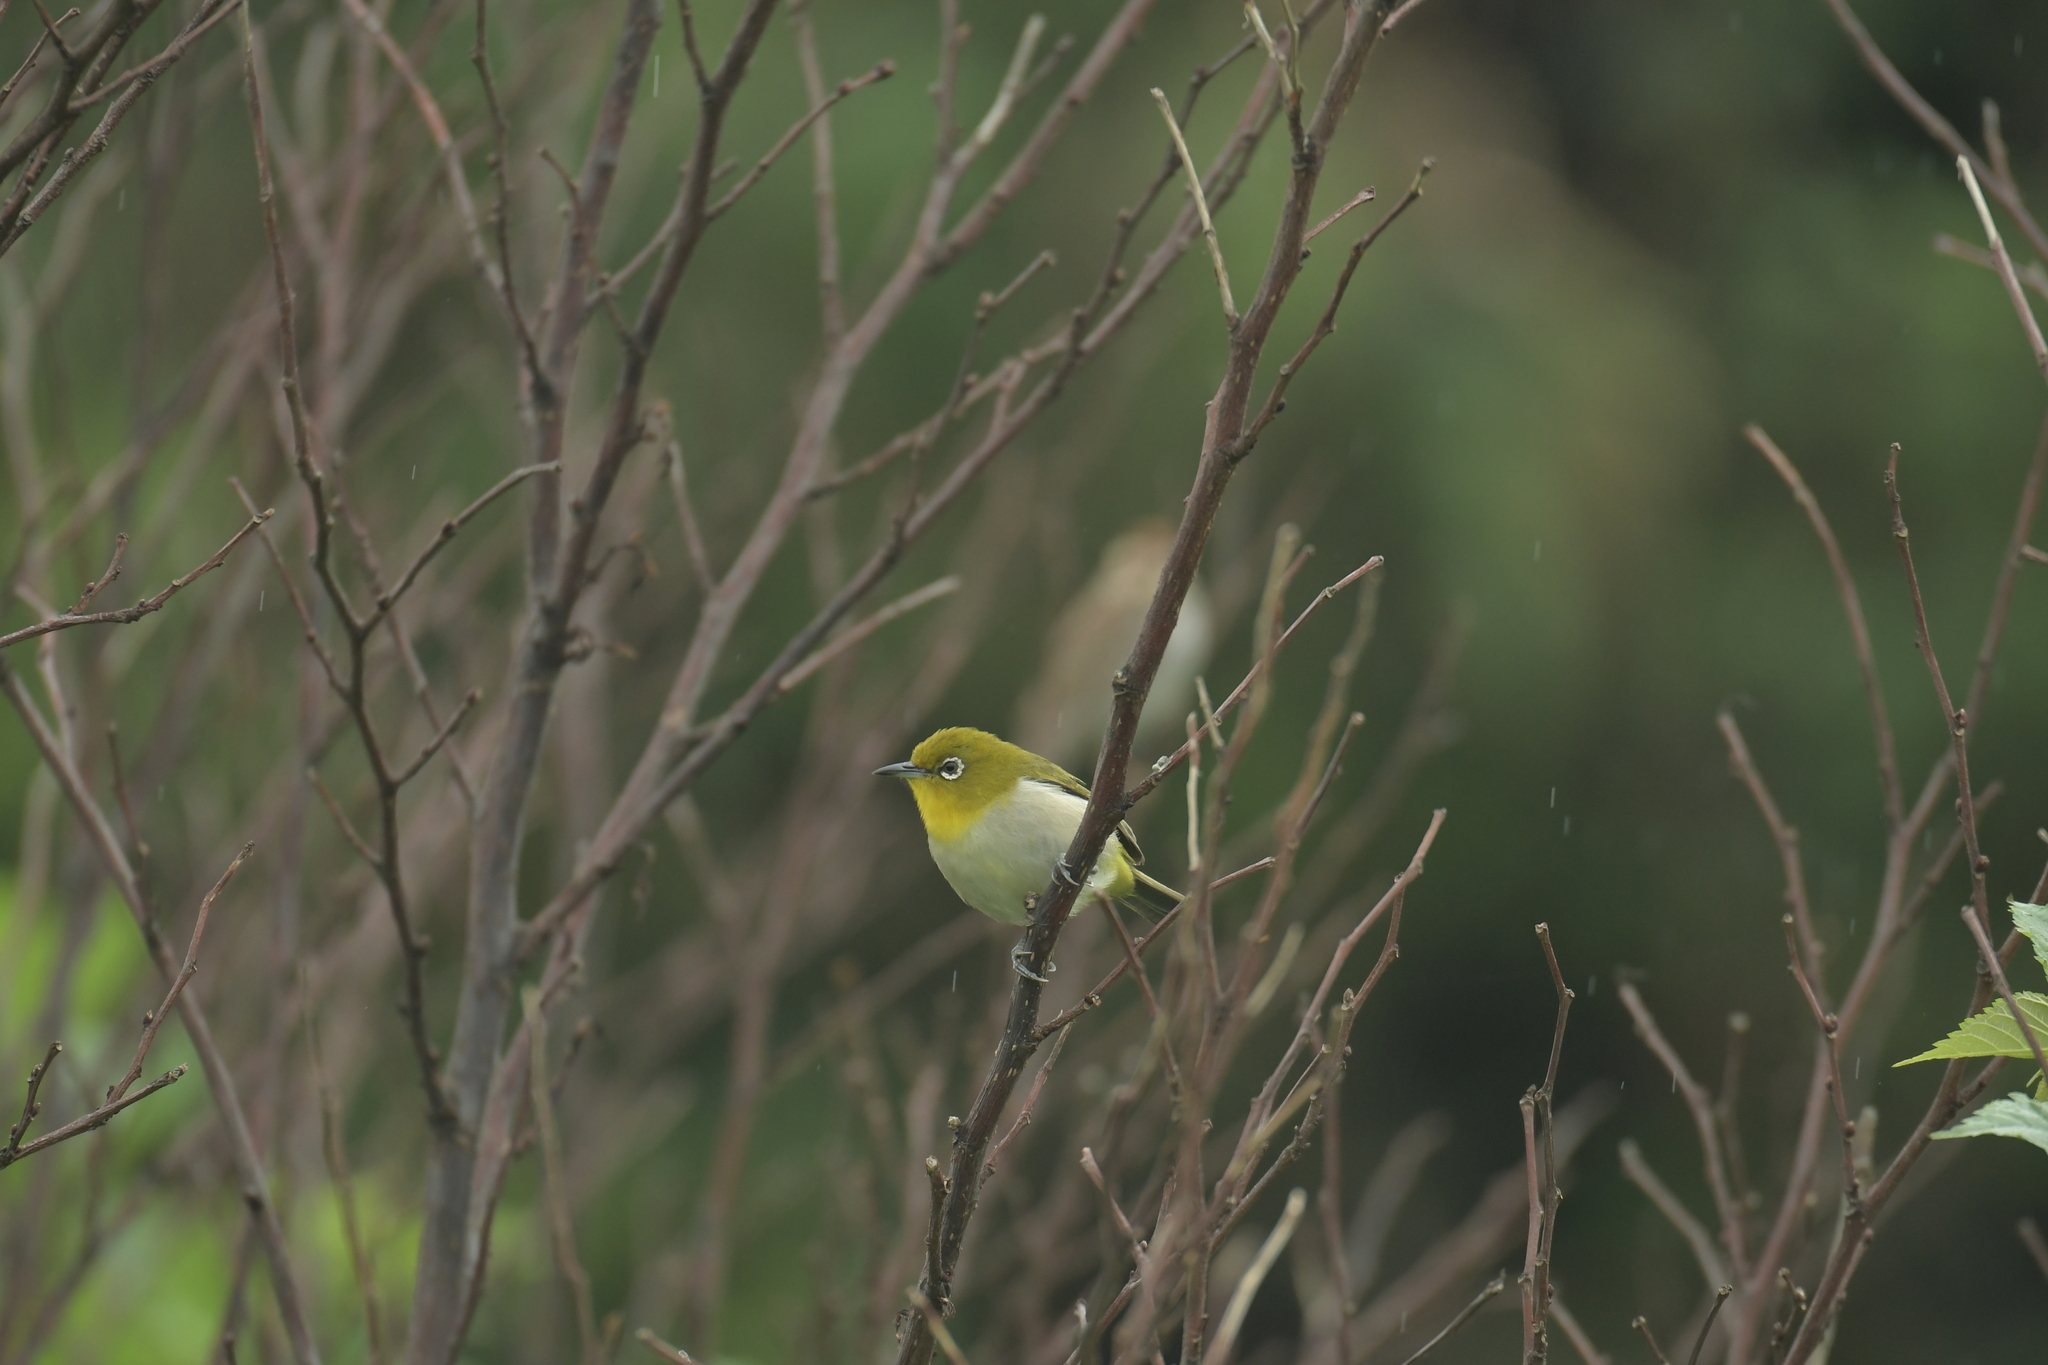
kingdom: Animalia
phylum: Chordata
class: Aves
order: Passeriformes
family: Zosteropidae
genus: Zosterops
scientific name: Zosterops japonicus
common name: Japanese white-eye
